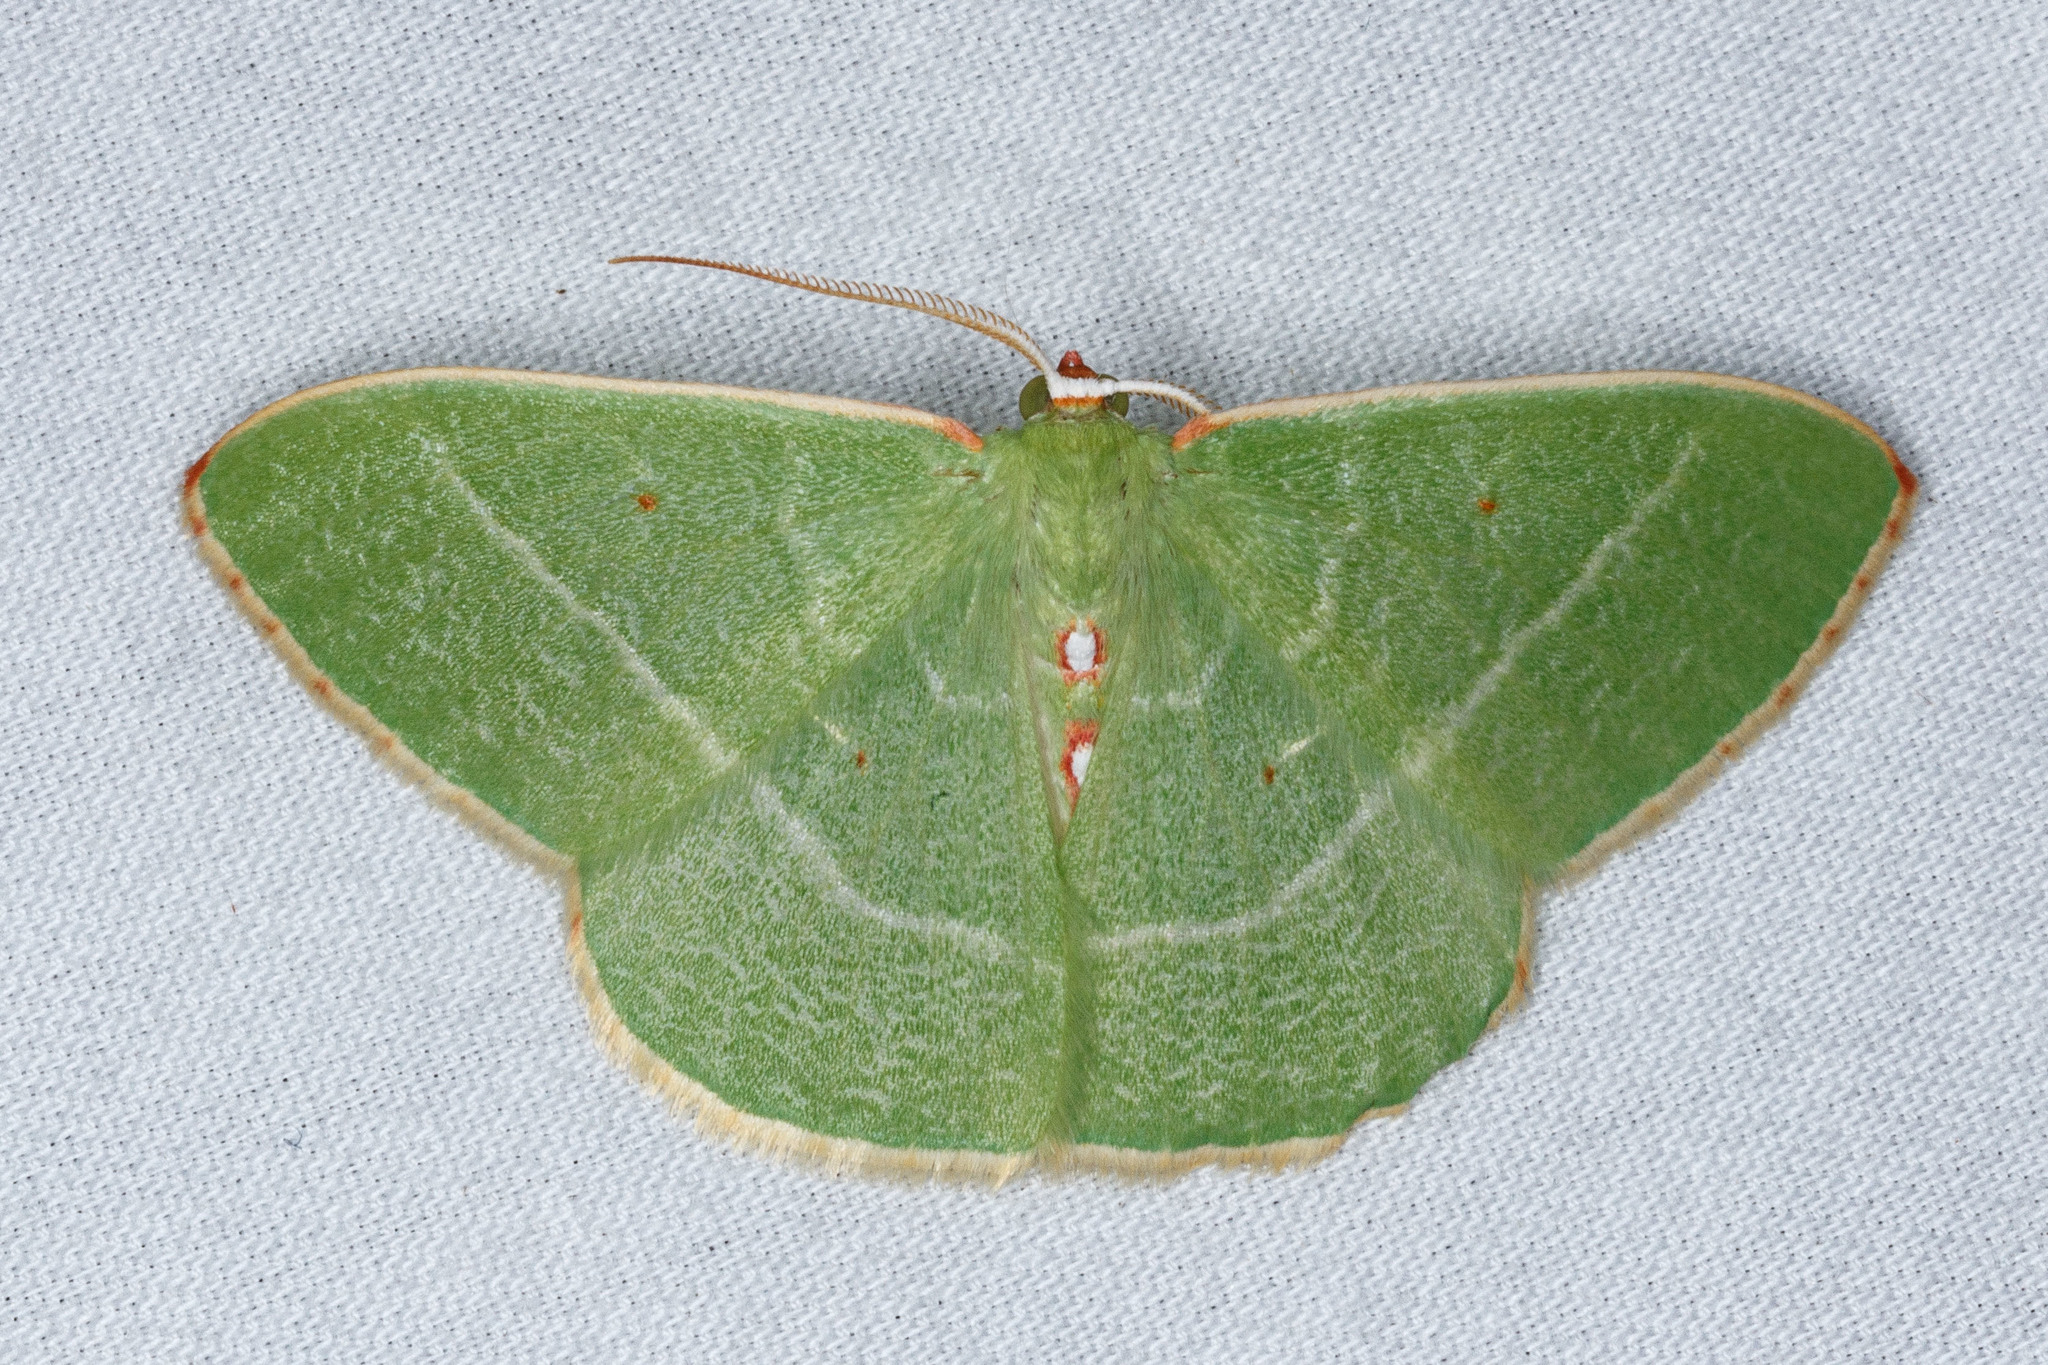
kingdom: Animalia
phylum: Arthropoda
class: Insecta
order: Lepidoptera
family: Geometridae
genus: Nemoria
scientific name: Nemoria darwiniata
